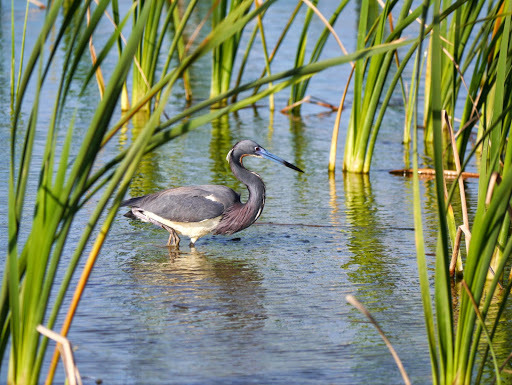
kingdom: Animalia
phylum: Chordata
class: Aves
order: Pelecaniformes
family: Ardeidae
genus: Egretta
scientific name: Egretta tricolor
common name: Tricolored heron
